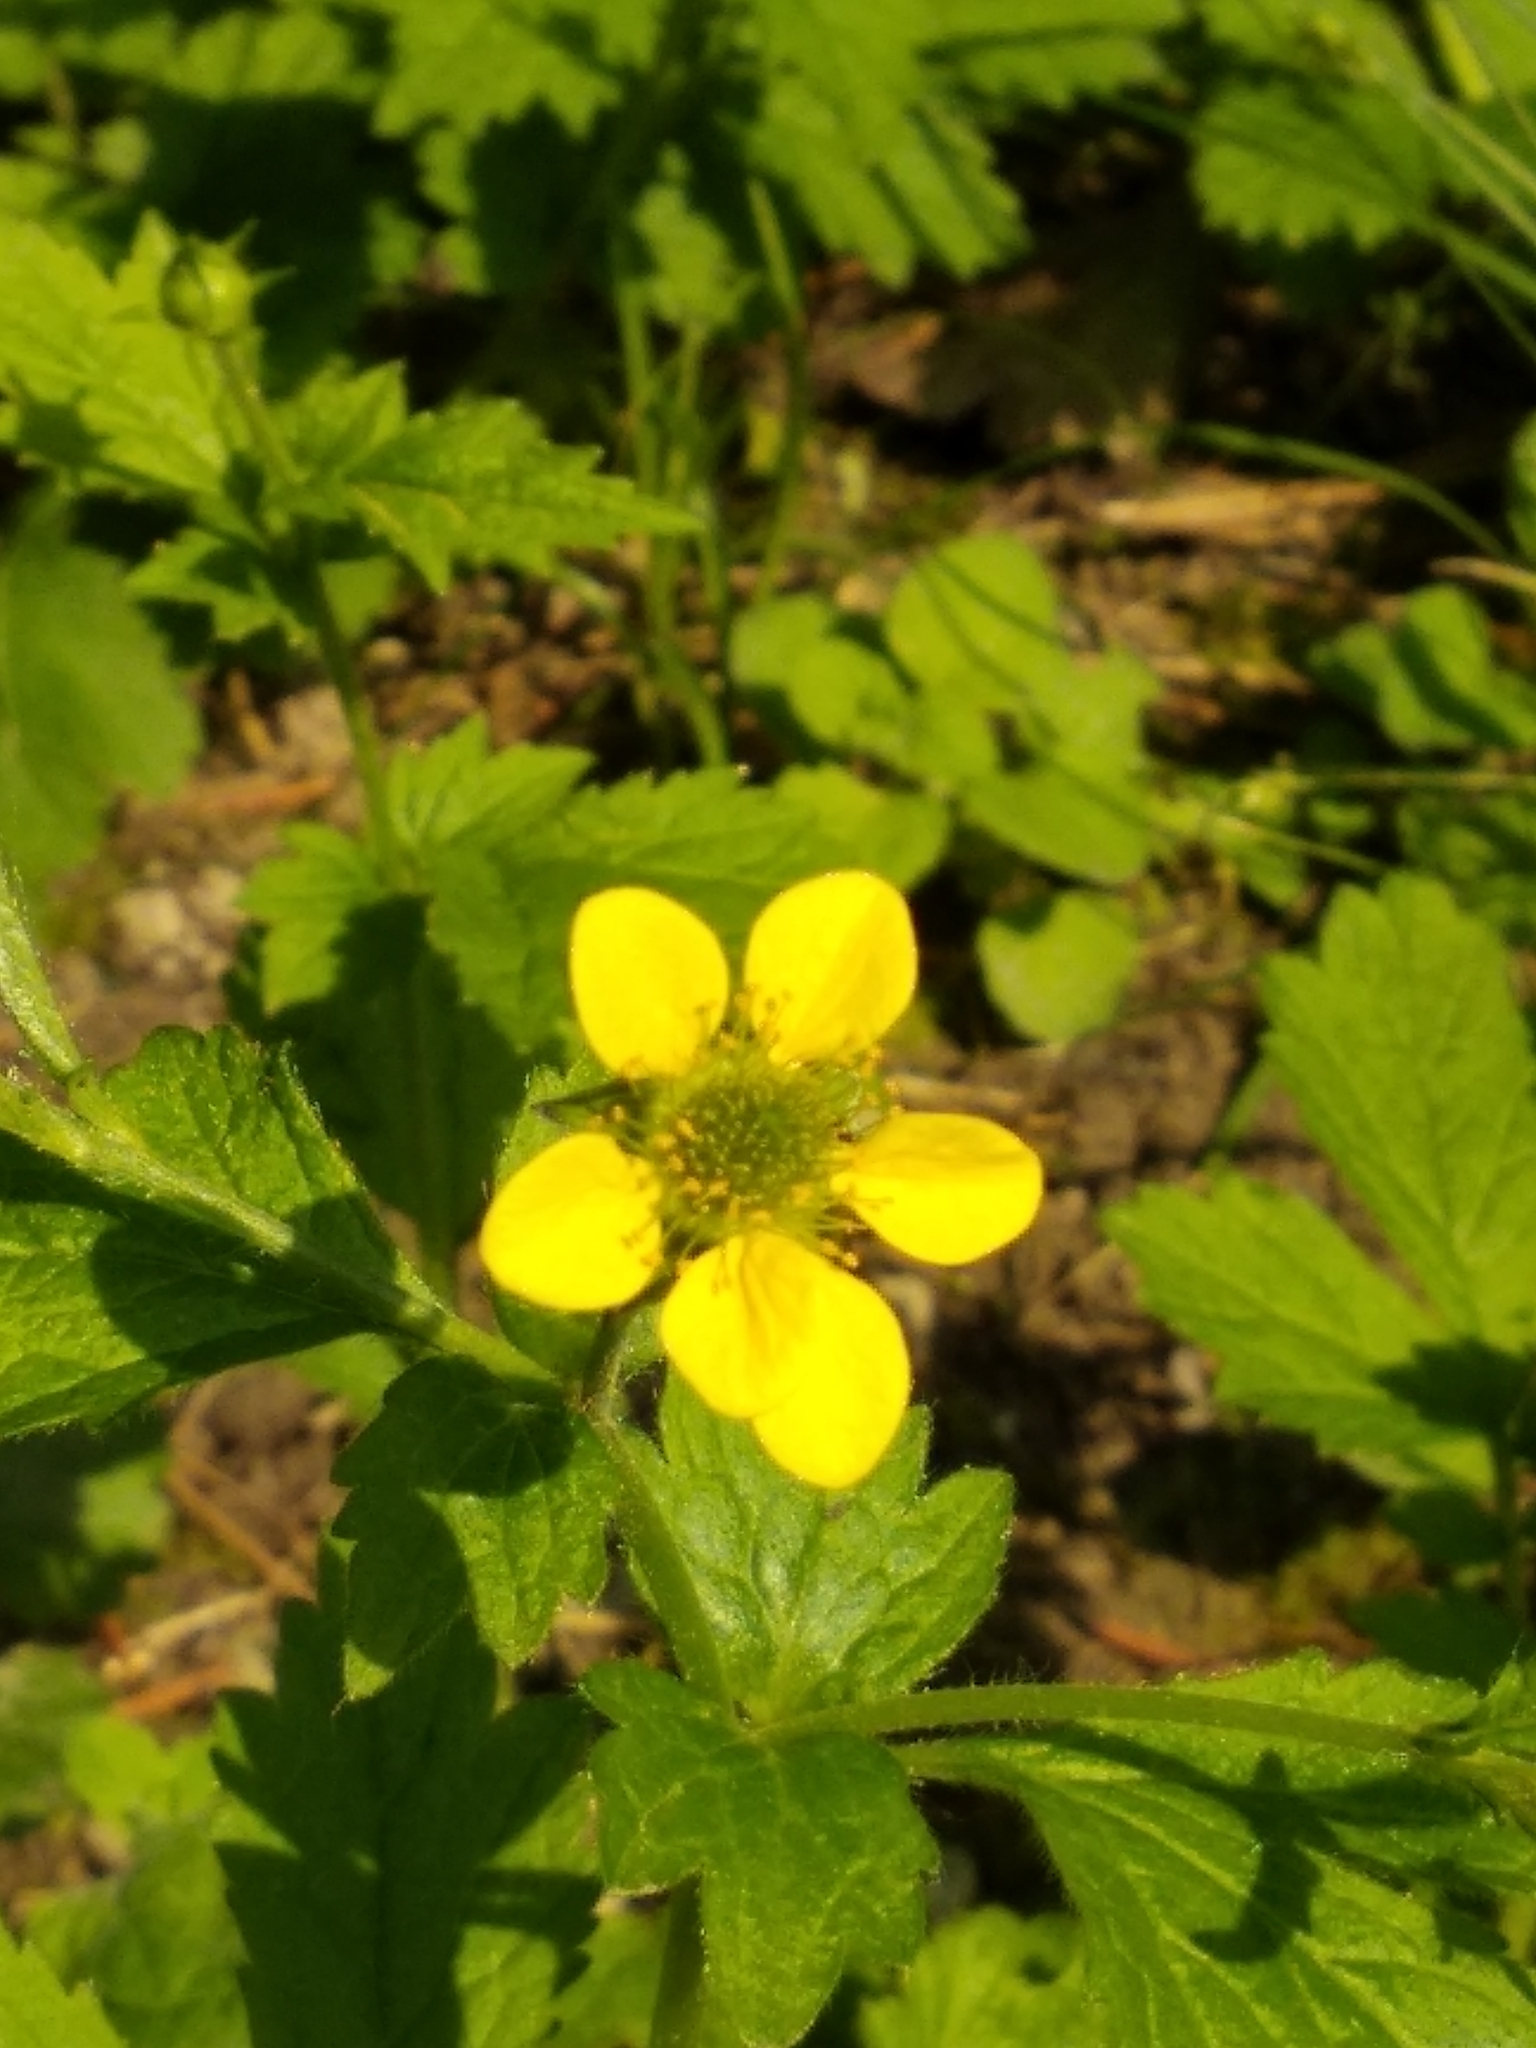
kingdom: Plantae
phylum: Tracheophyta
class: Magnoliopsida
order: Rosales
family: Rosaceae
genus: Geum
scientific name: Geum urbanum
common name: Wood avens
